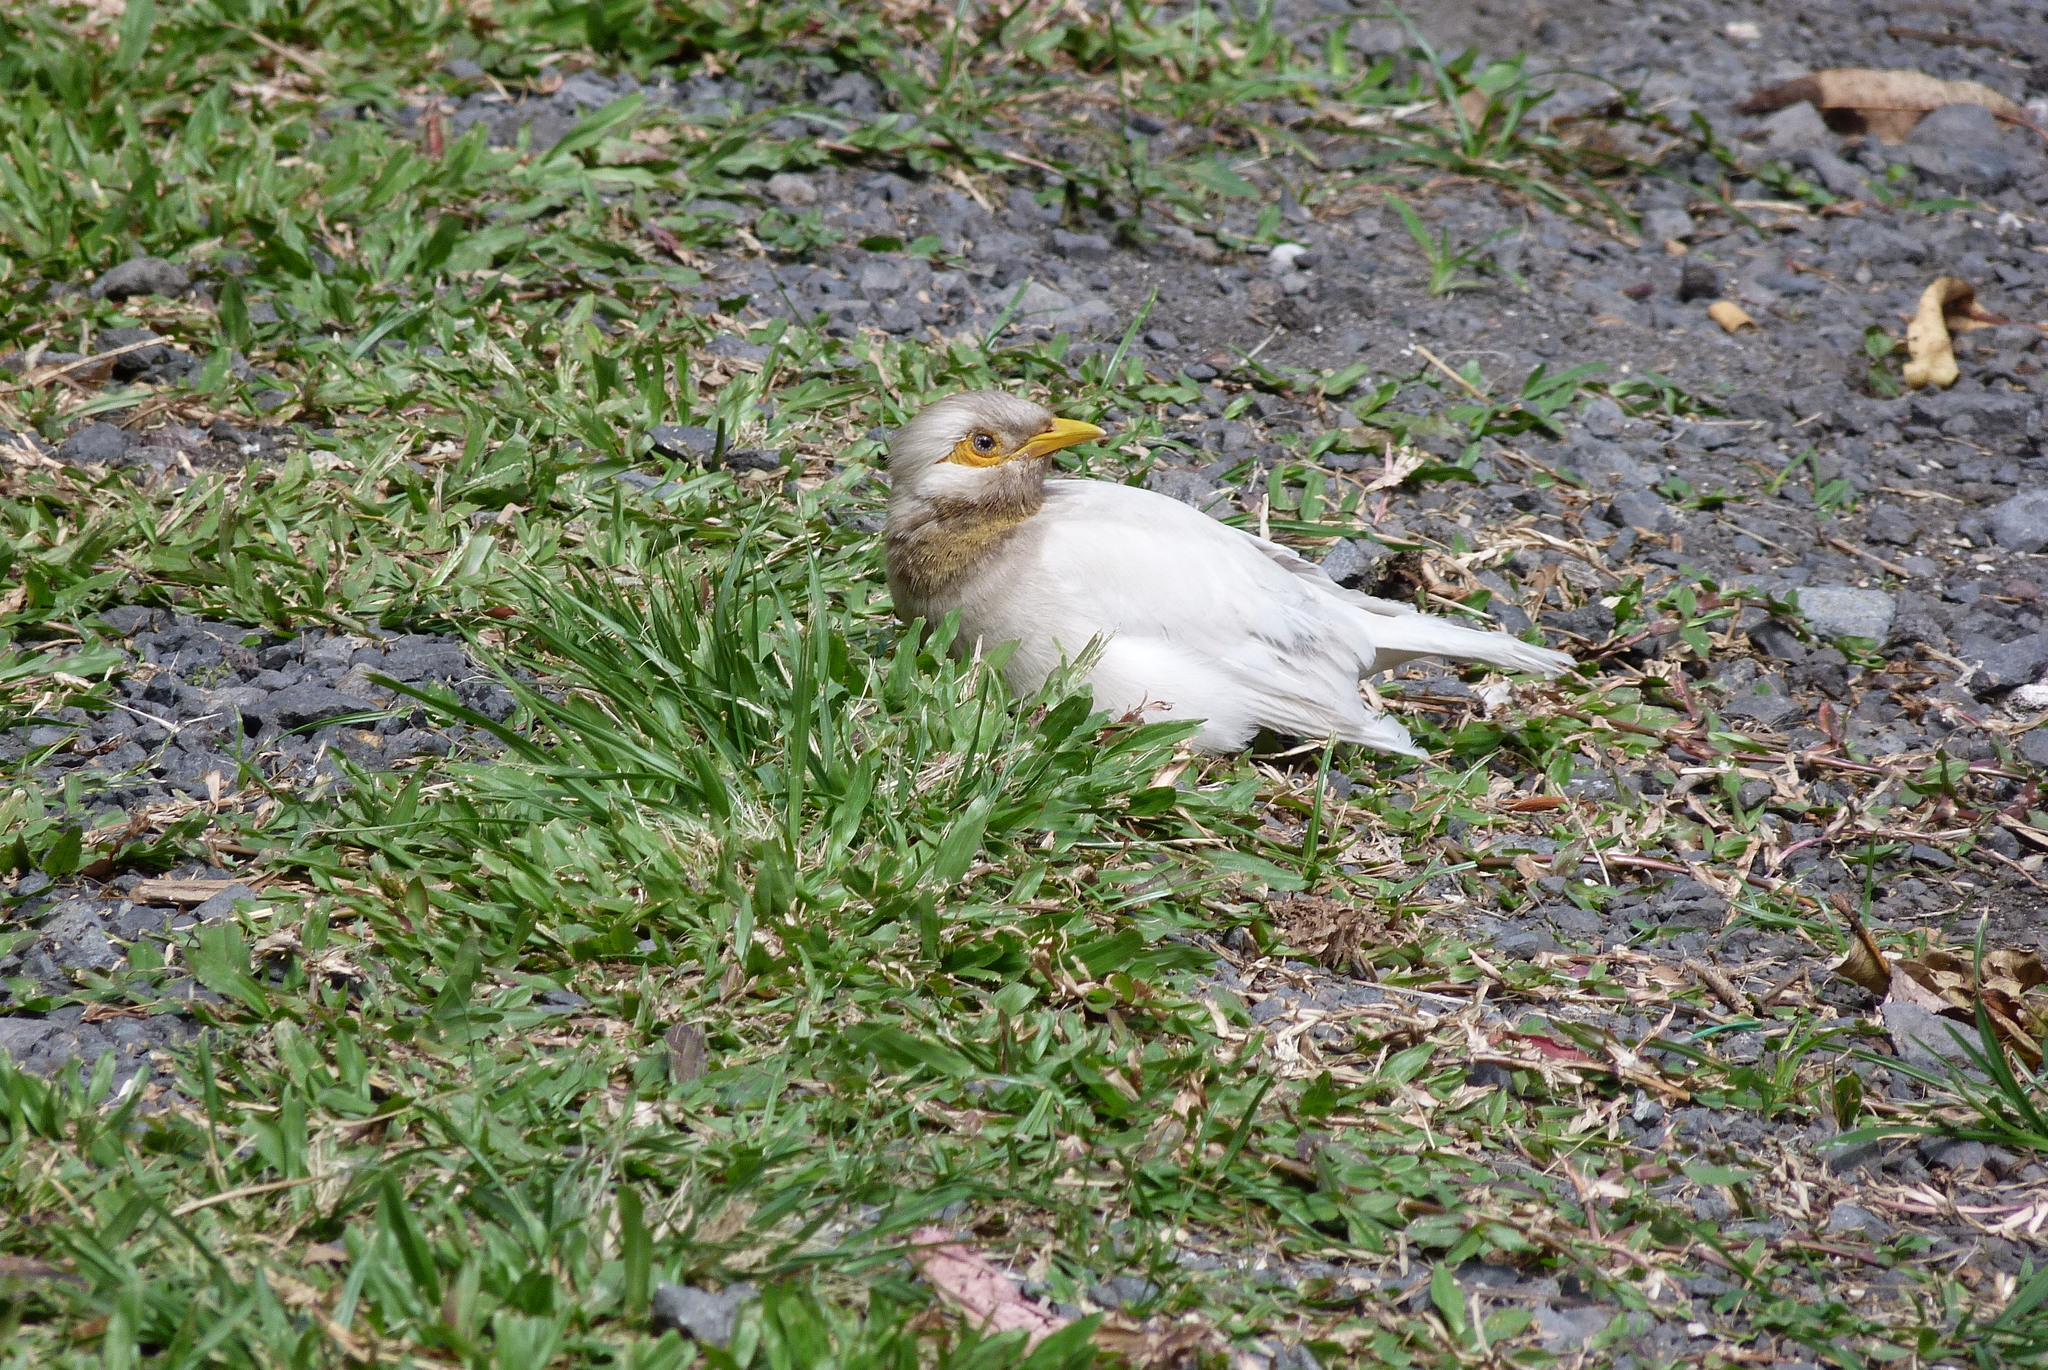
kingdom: Animalia
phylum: Chordata
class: Aves
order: Passeriformes
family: Sturnidae
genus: Acridotheres
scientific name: Acridotheres tristis
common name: Common myna
